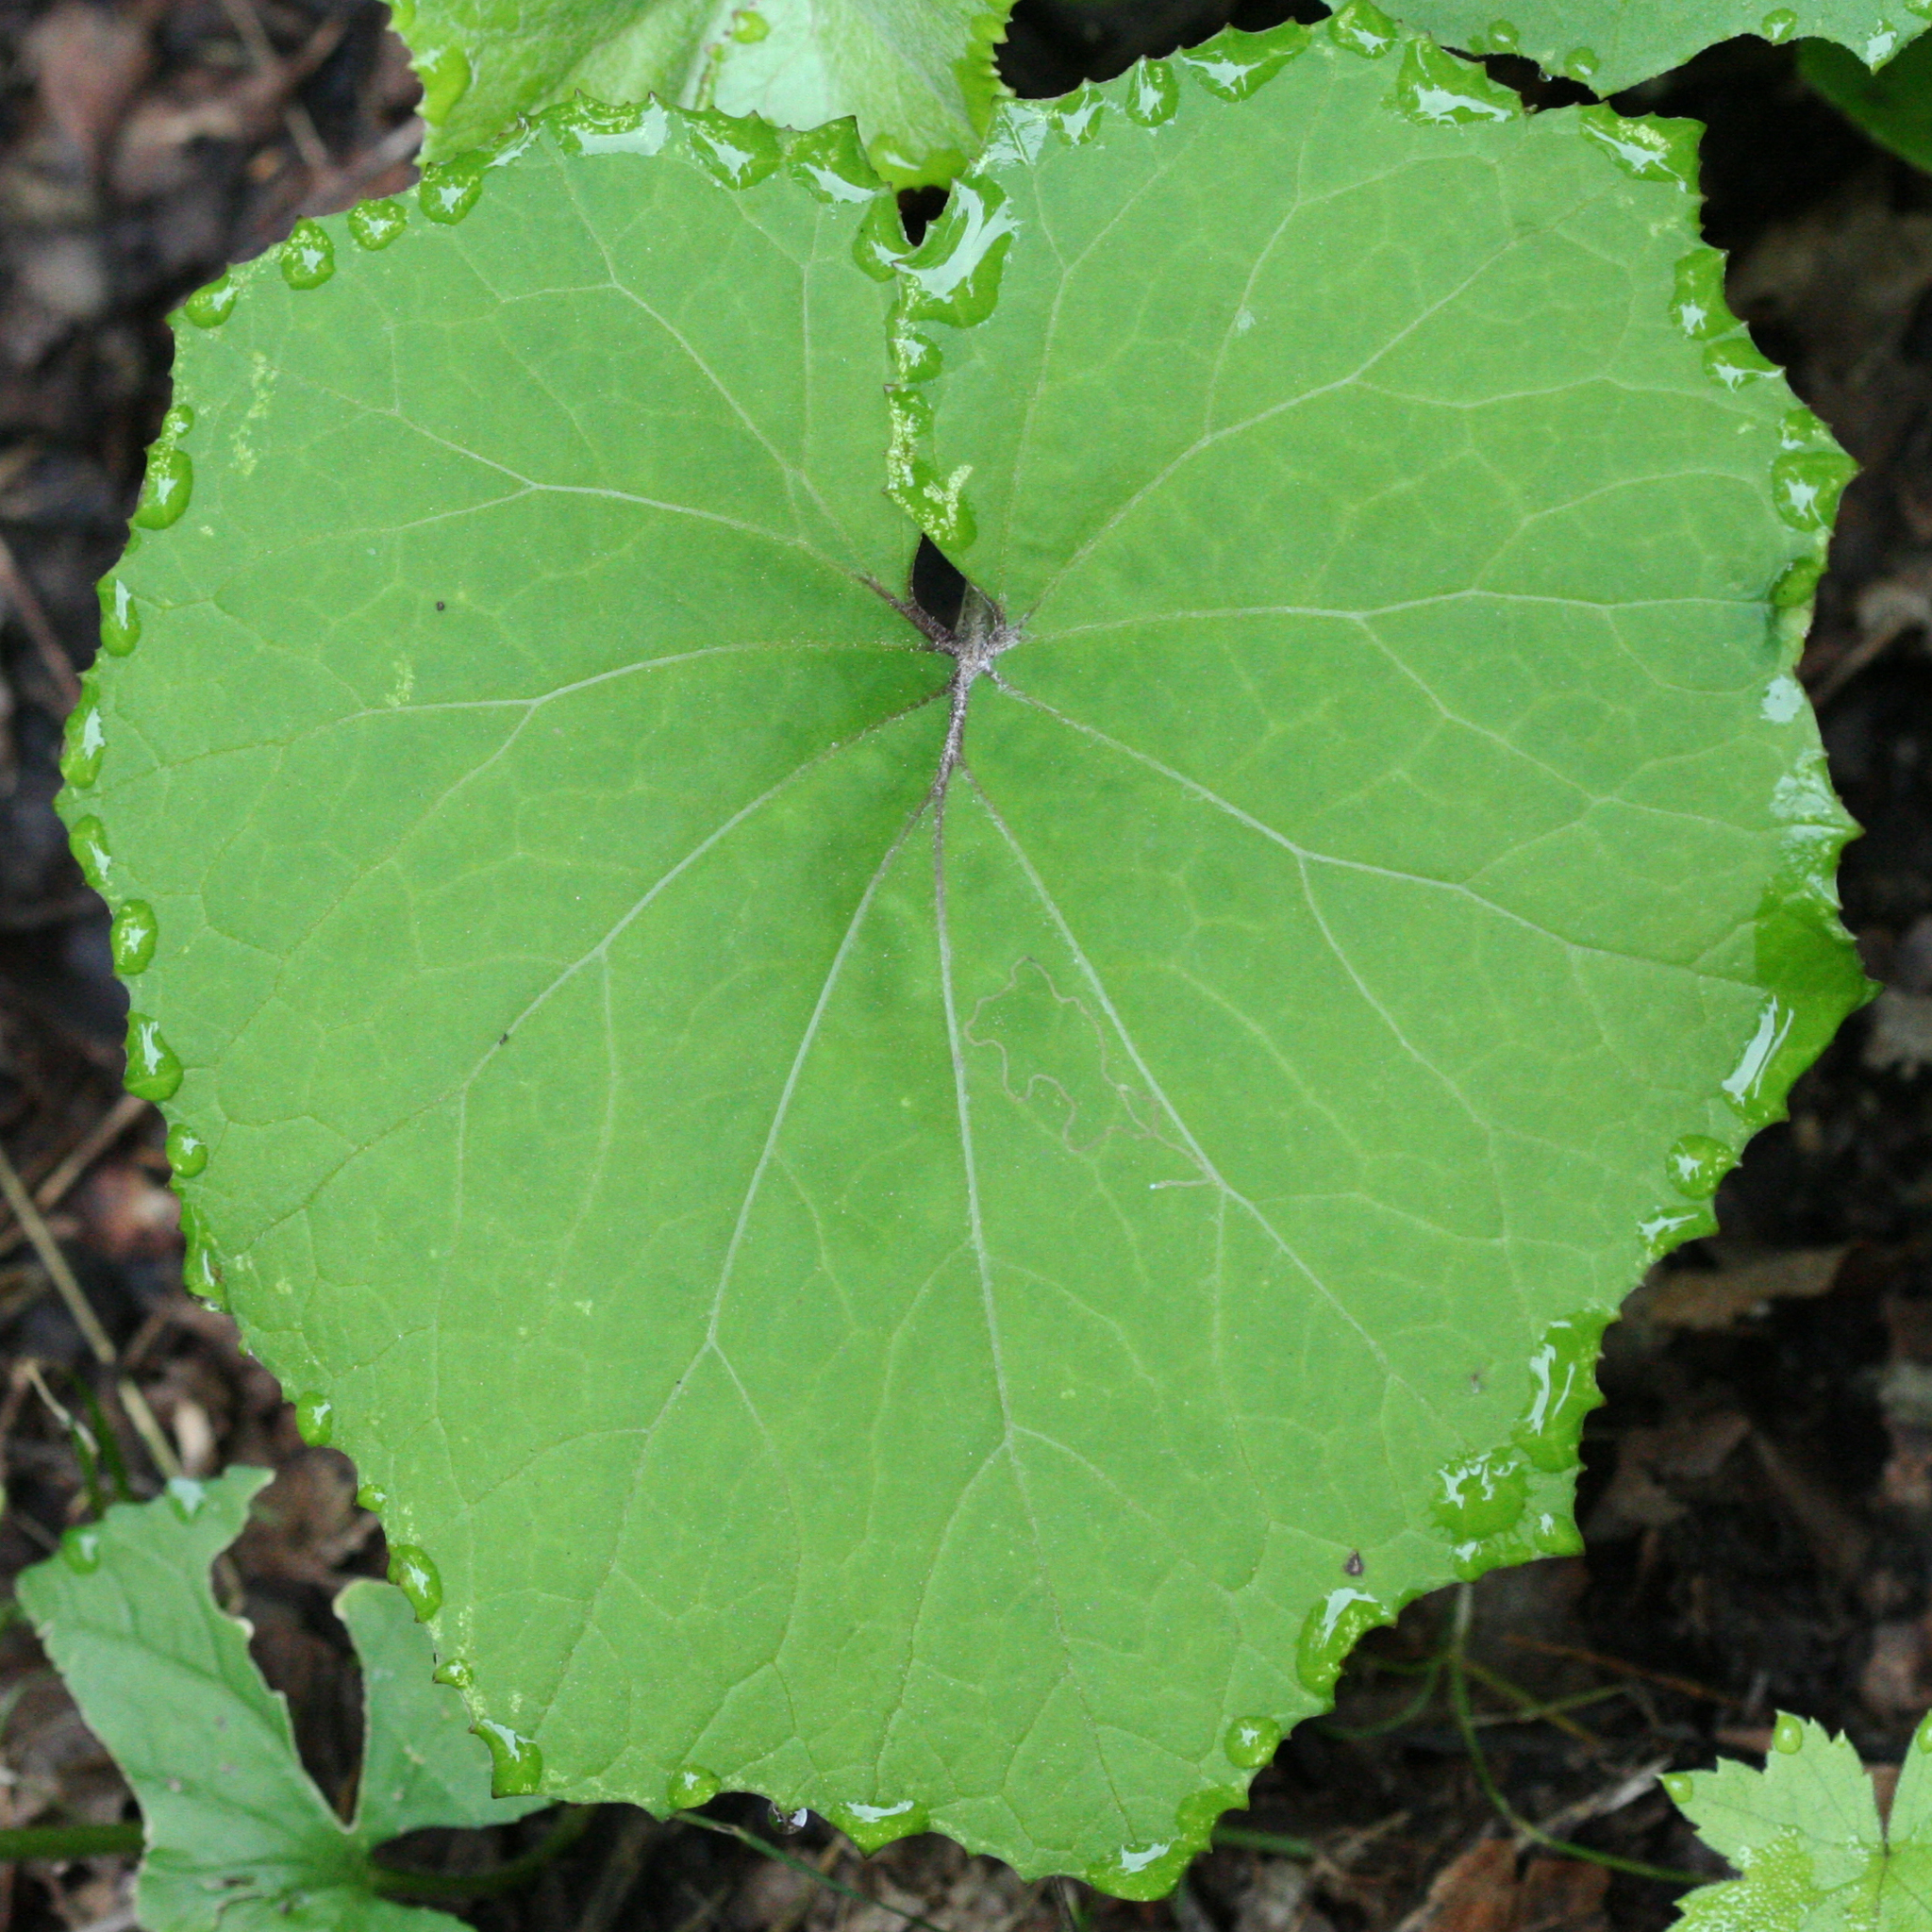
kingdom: Plantae
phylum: Tracheophyta
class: Magnoliopsida
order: Asterales
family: Asteraceae
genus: Tussilago
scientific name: Tussilago farfara
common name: Coltsfoot
